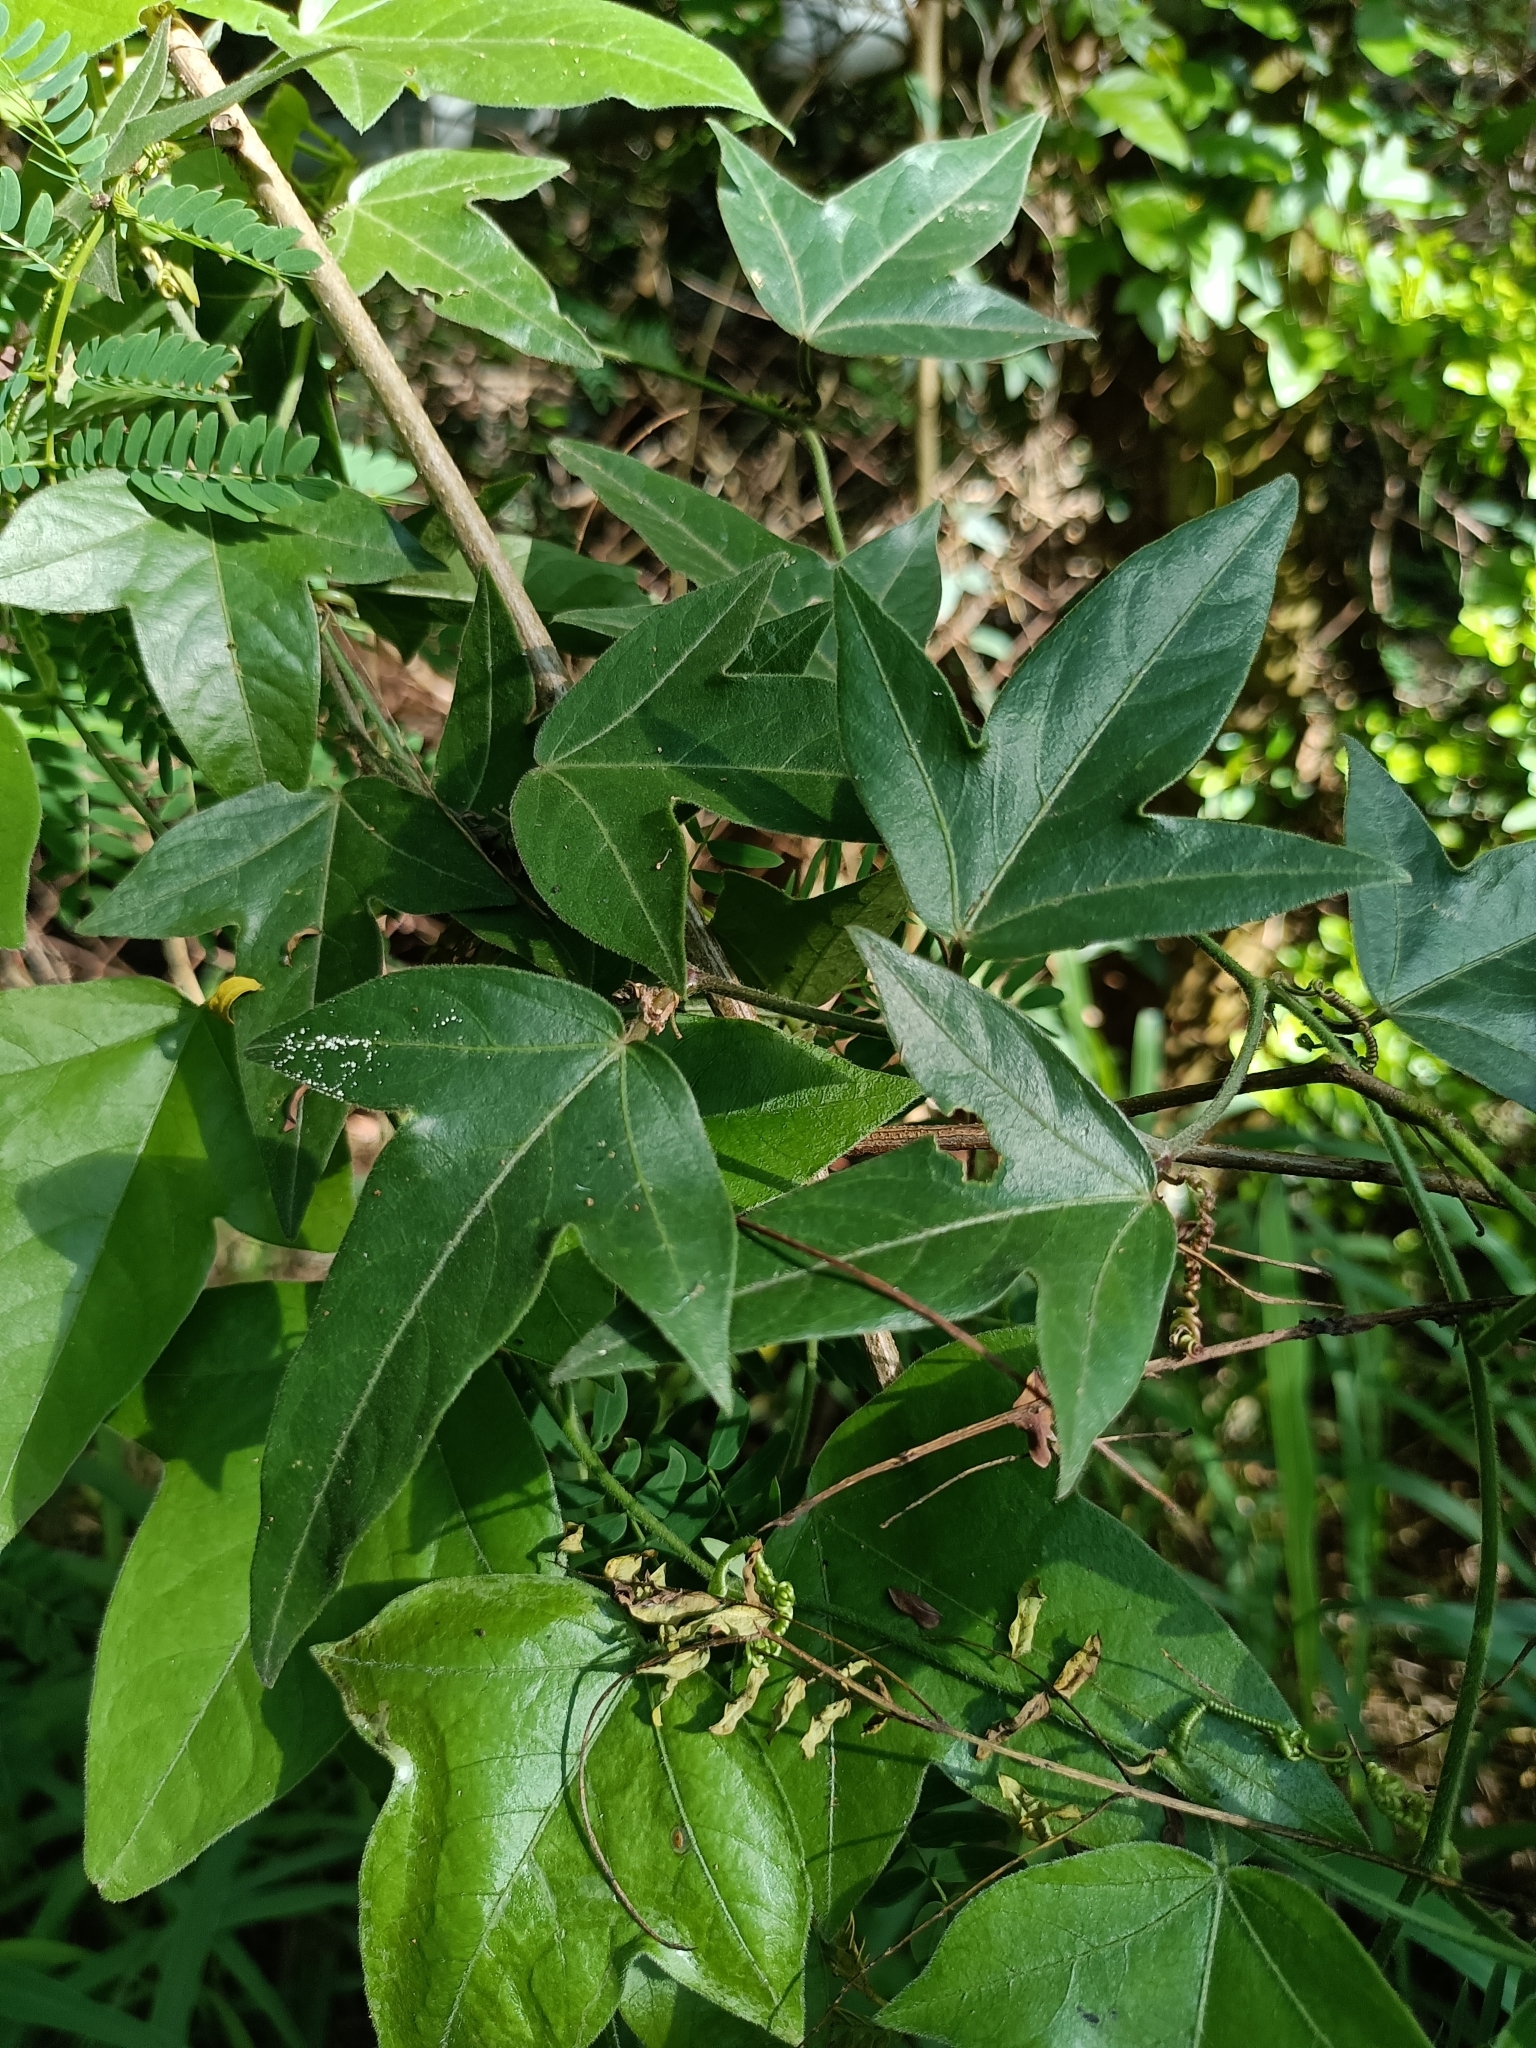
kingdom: Plantae
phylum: Tracheophyta
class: Magnoliopsida
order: Malpighiales
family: Passifloraceae
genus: Passiflora
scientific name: Passiflora suberosa
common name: Wild passionfruit
